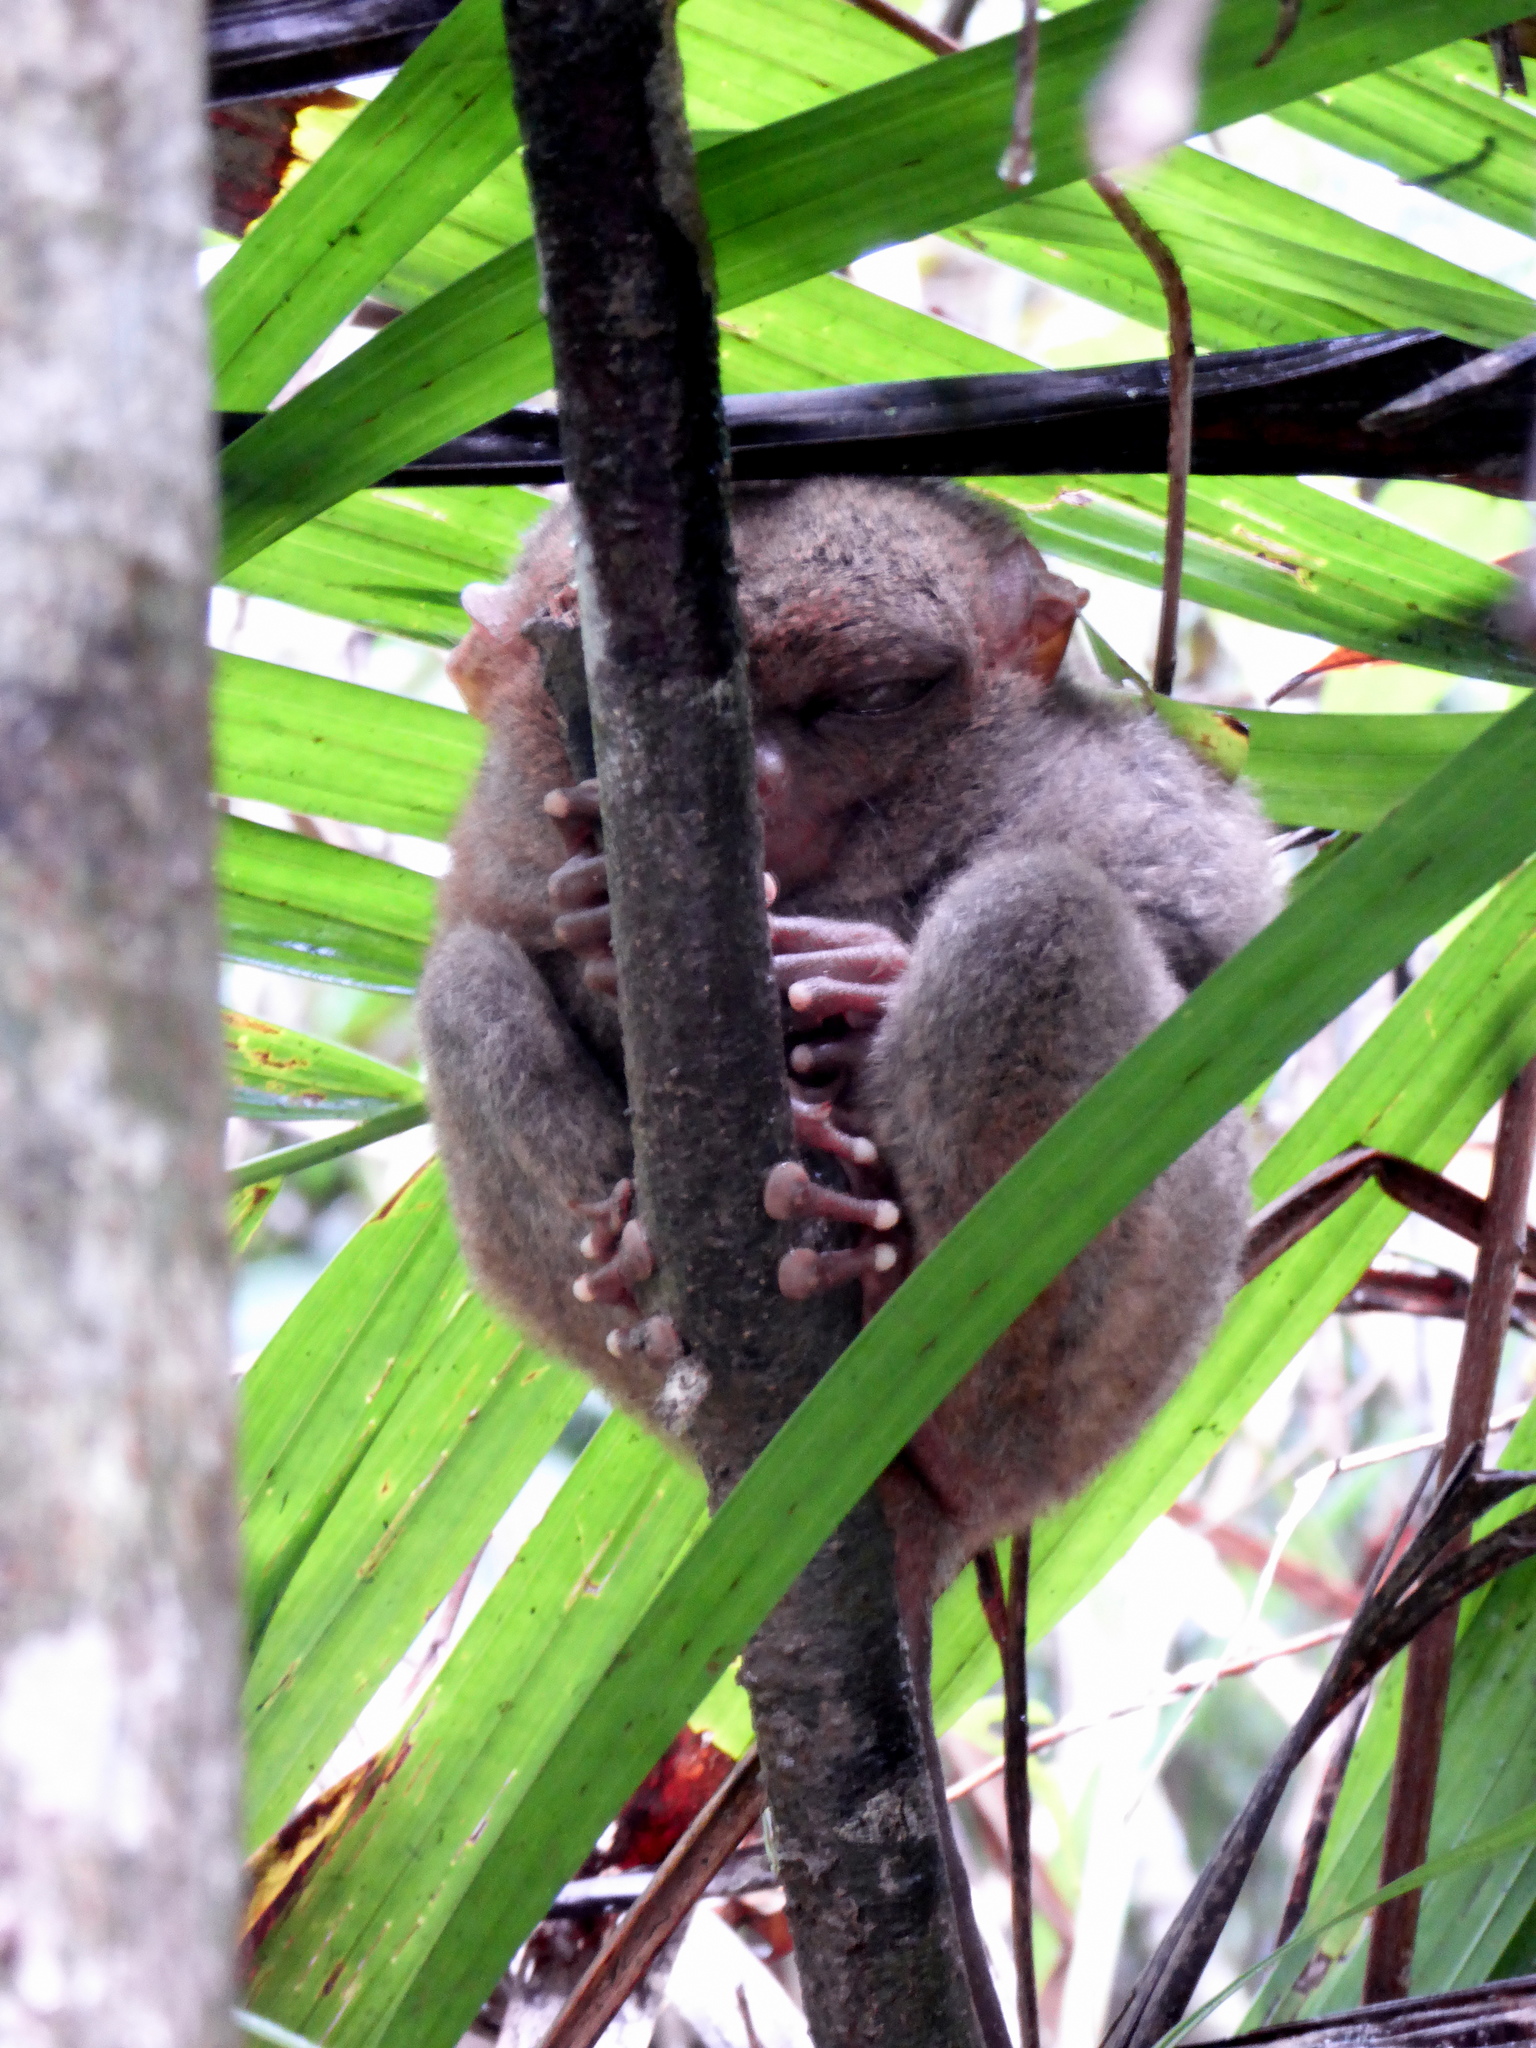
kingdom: Animalia
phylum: Chordata
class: Mammalia
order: Primates
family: Tarsiidae
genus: Carlito
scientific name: Carlito syrichta
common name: Philippine tarsier
